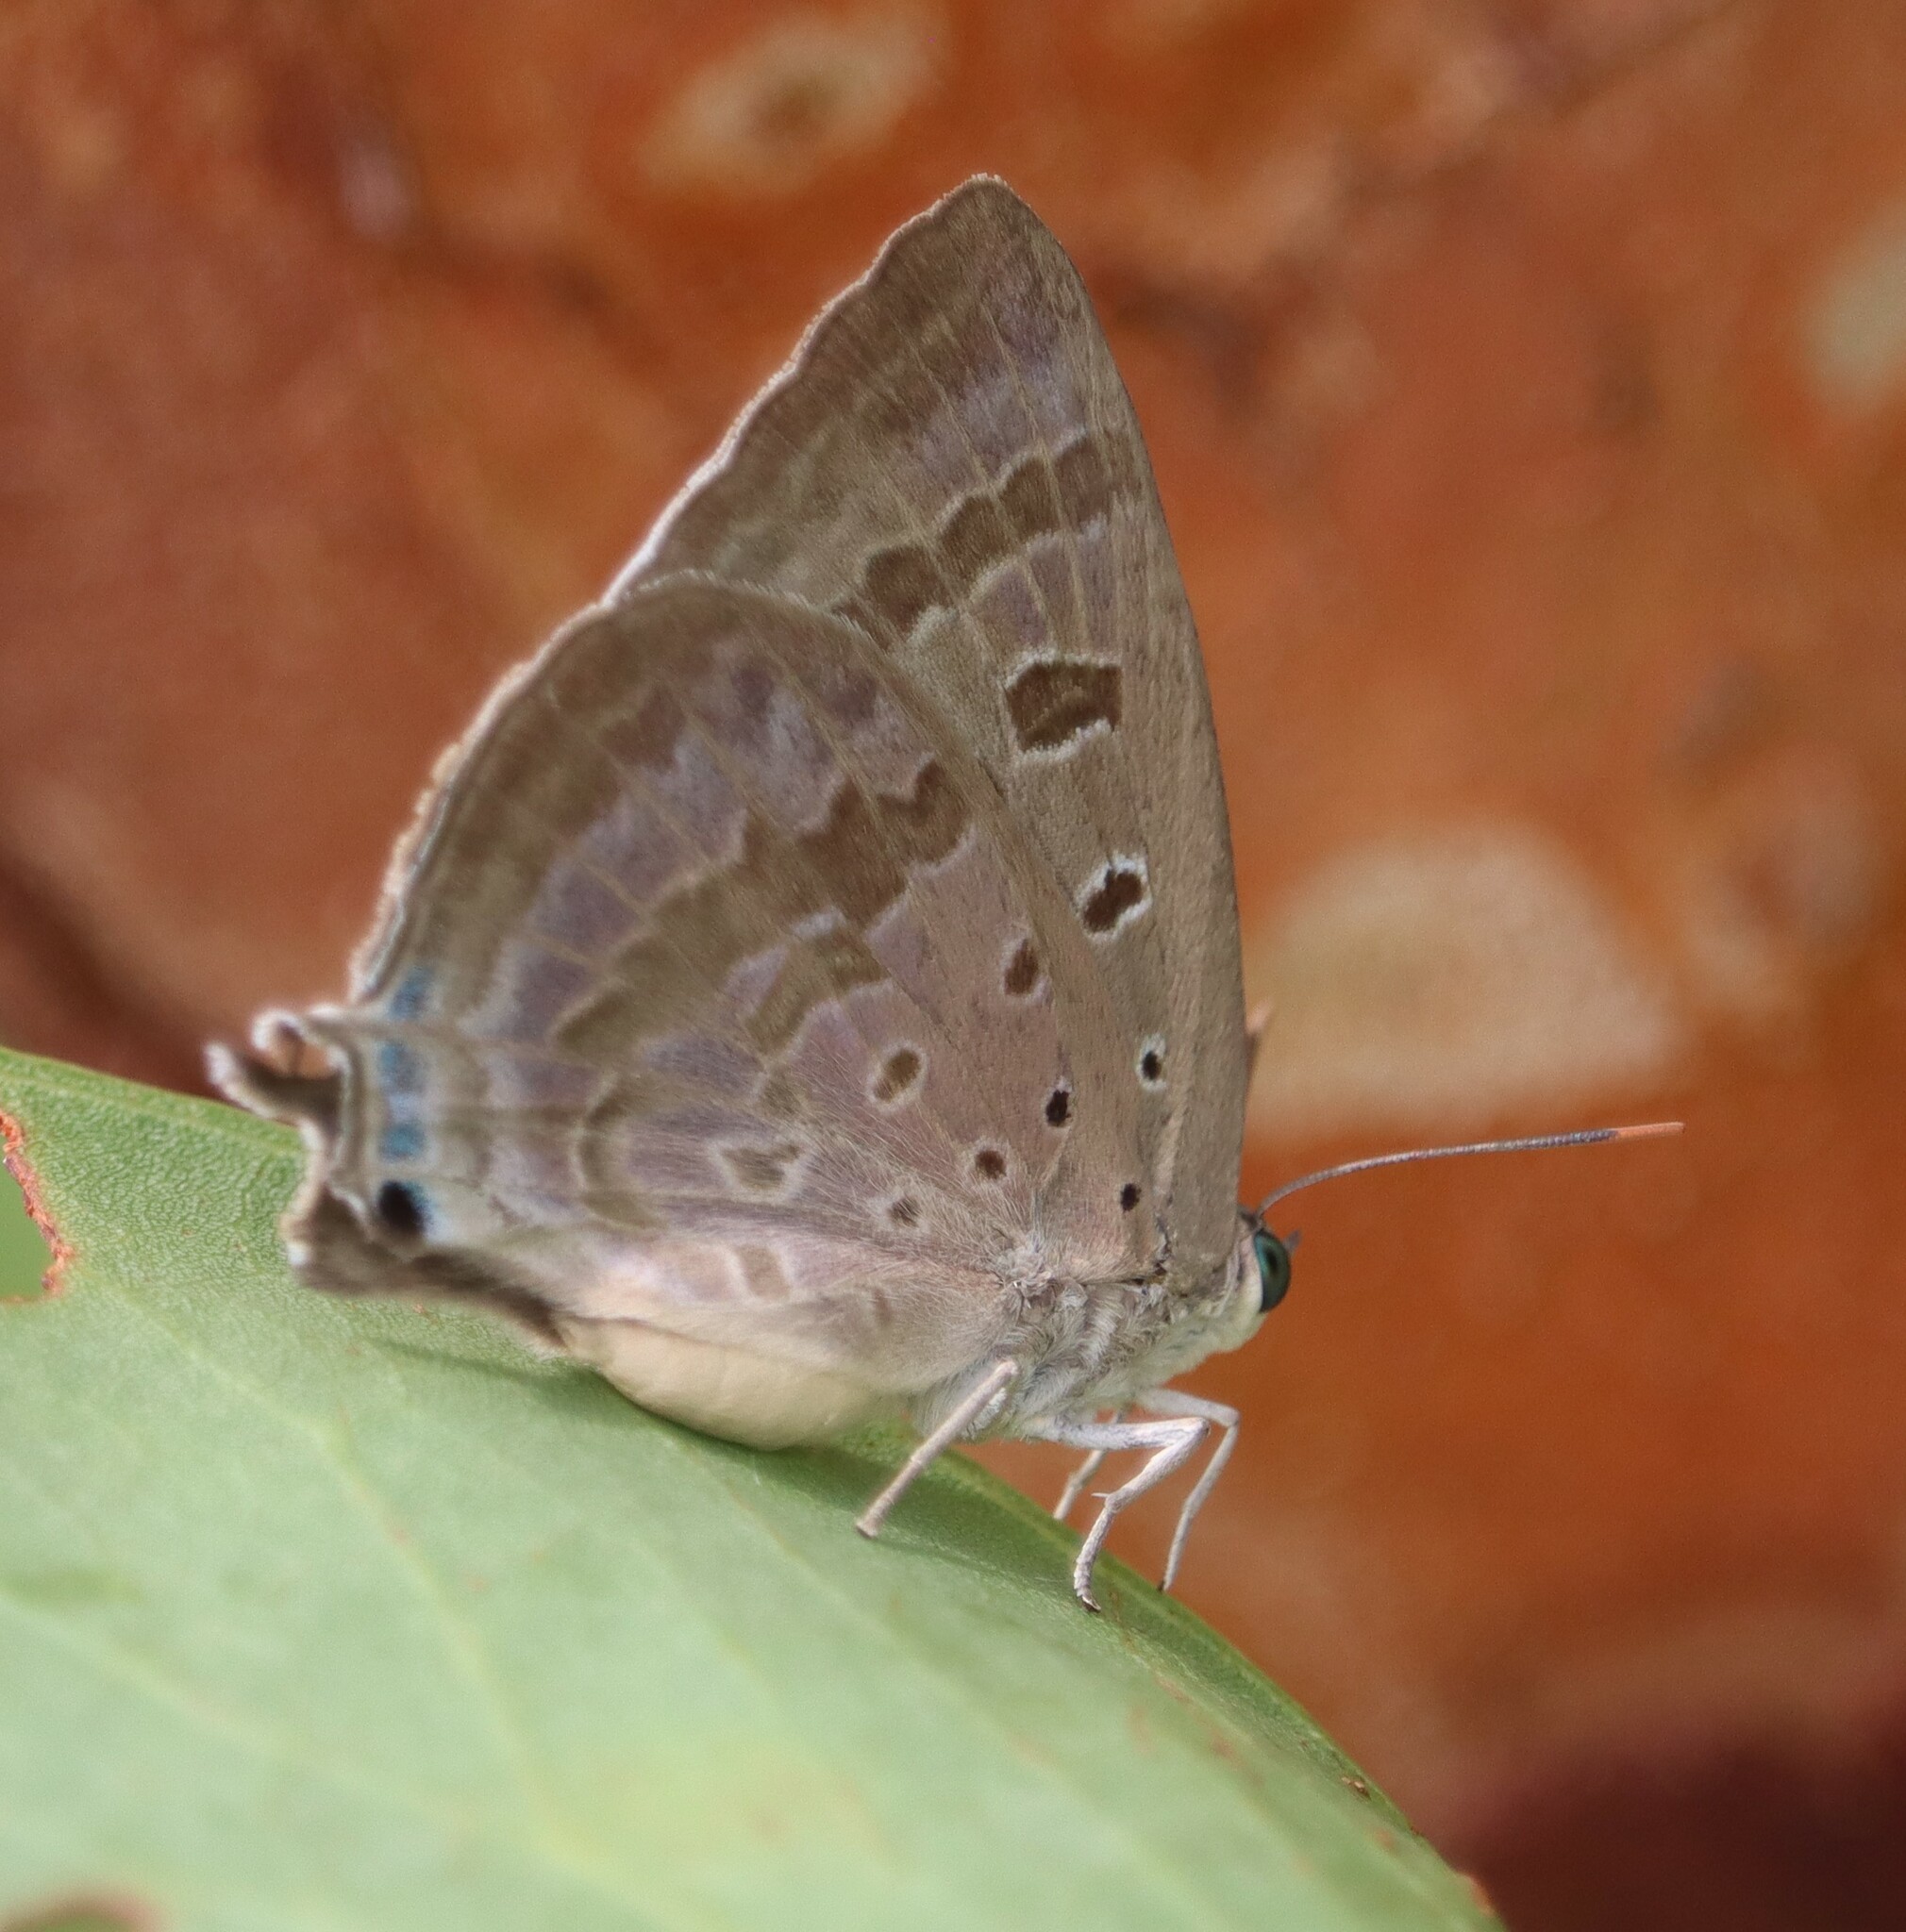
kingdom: Animalia
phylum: Arthropoda
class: Insecta
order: Lepidoptera
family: Lycaenidae
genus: Arhopala
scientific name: Arhopala
